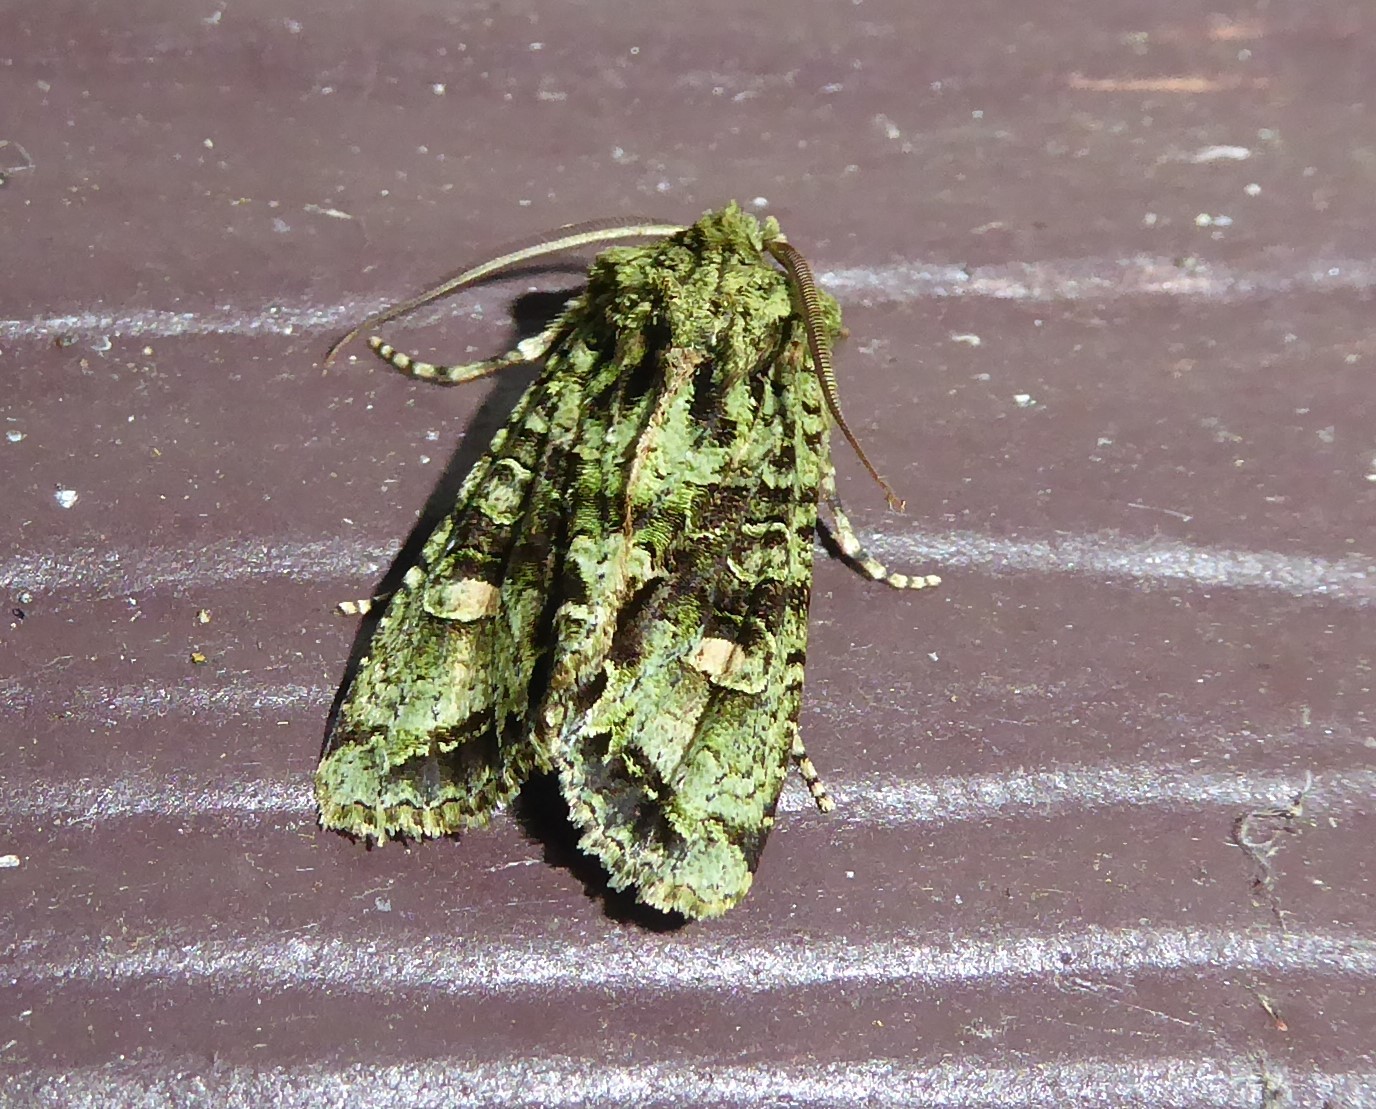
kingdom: Animalia
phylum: Arthropoda
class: Insecta
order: Lepidoptera
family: Noctuidae
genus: Ichneutica
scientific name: Ichneutica
